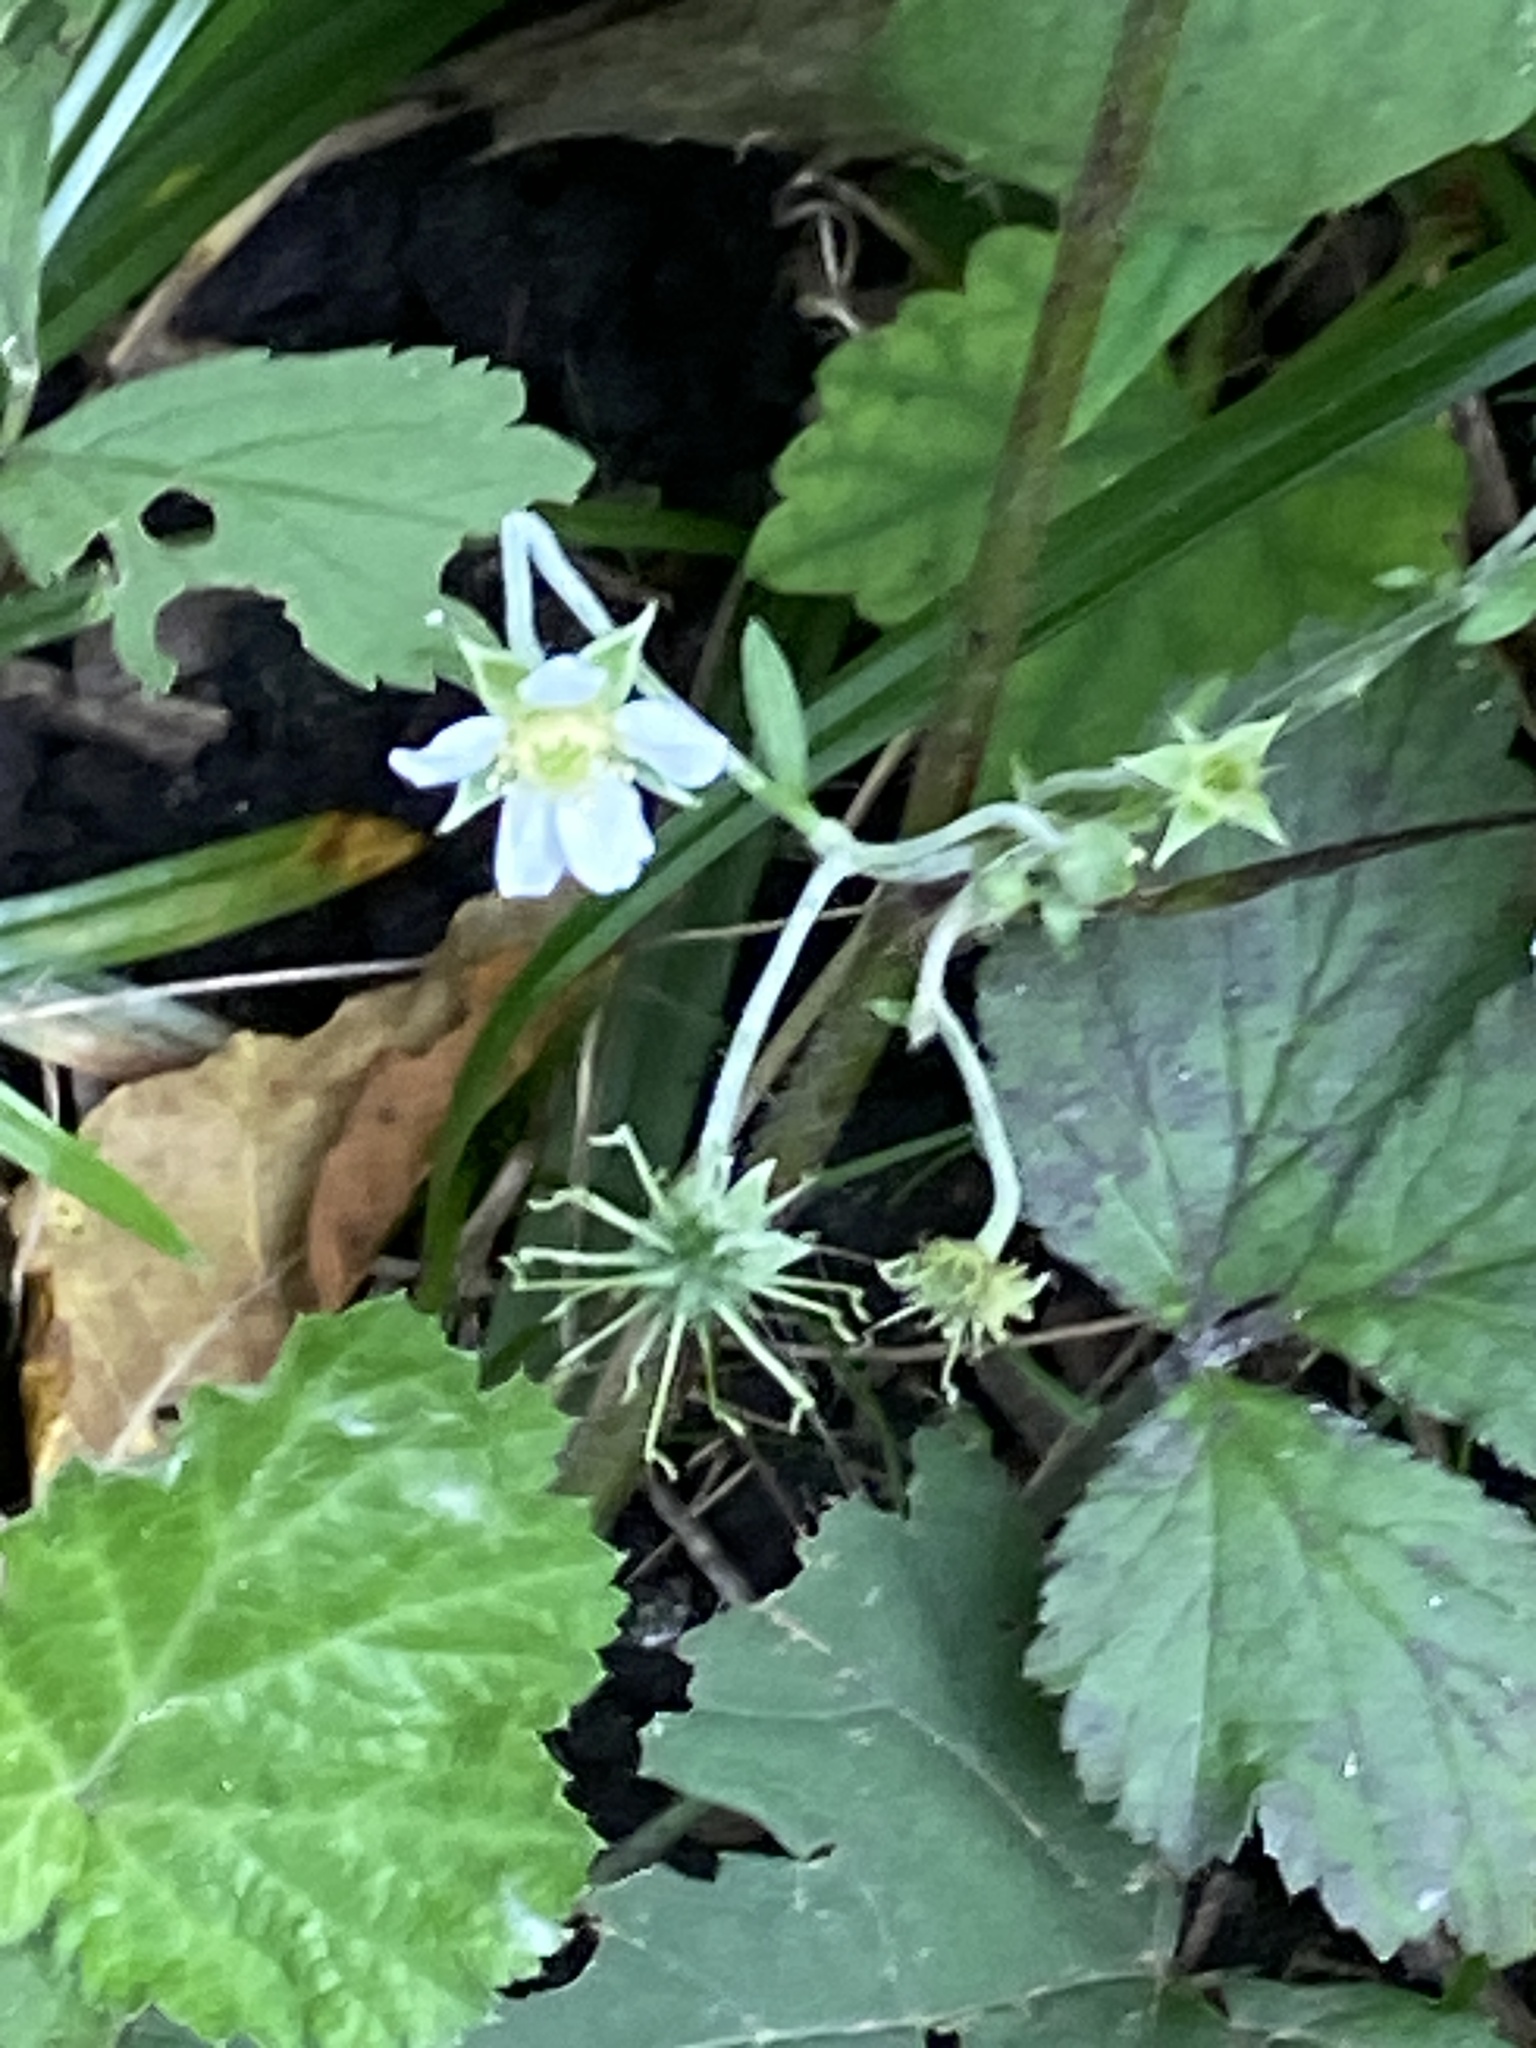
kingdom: Plantae
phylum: Tracheophyta
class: Magnoliopsida
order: Rosales
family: Rosaceae
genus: Geum
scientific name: Geum canadense
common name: White avens
